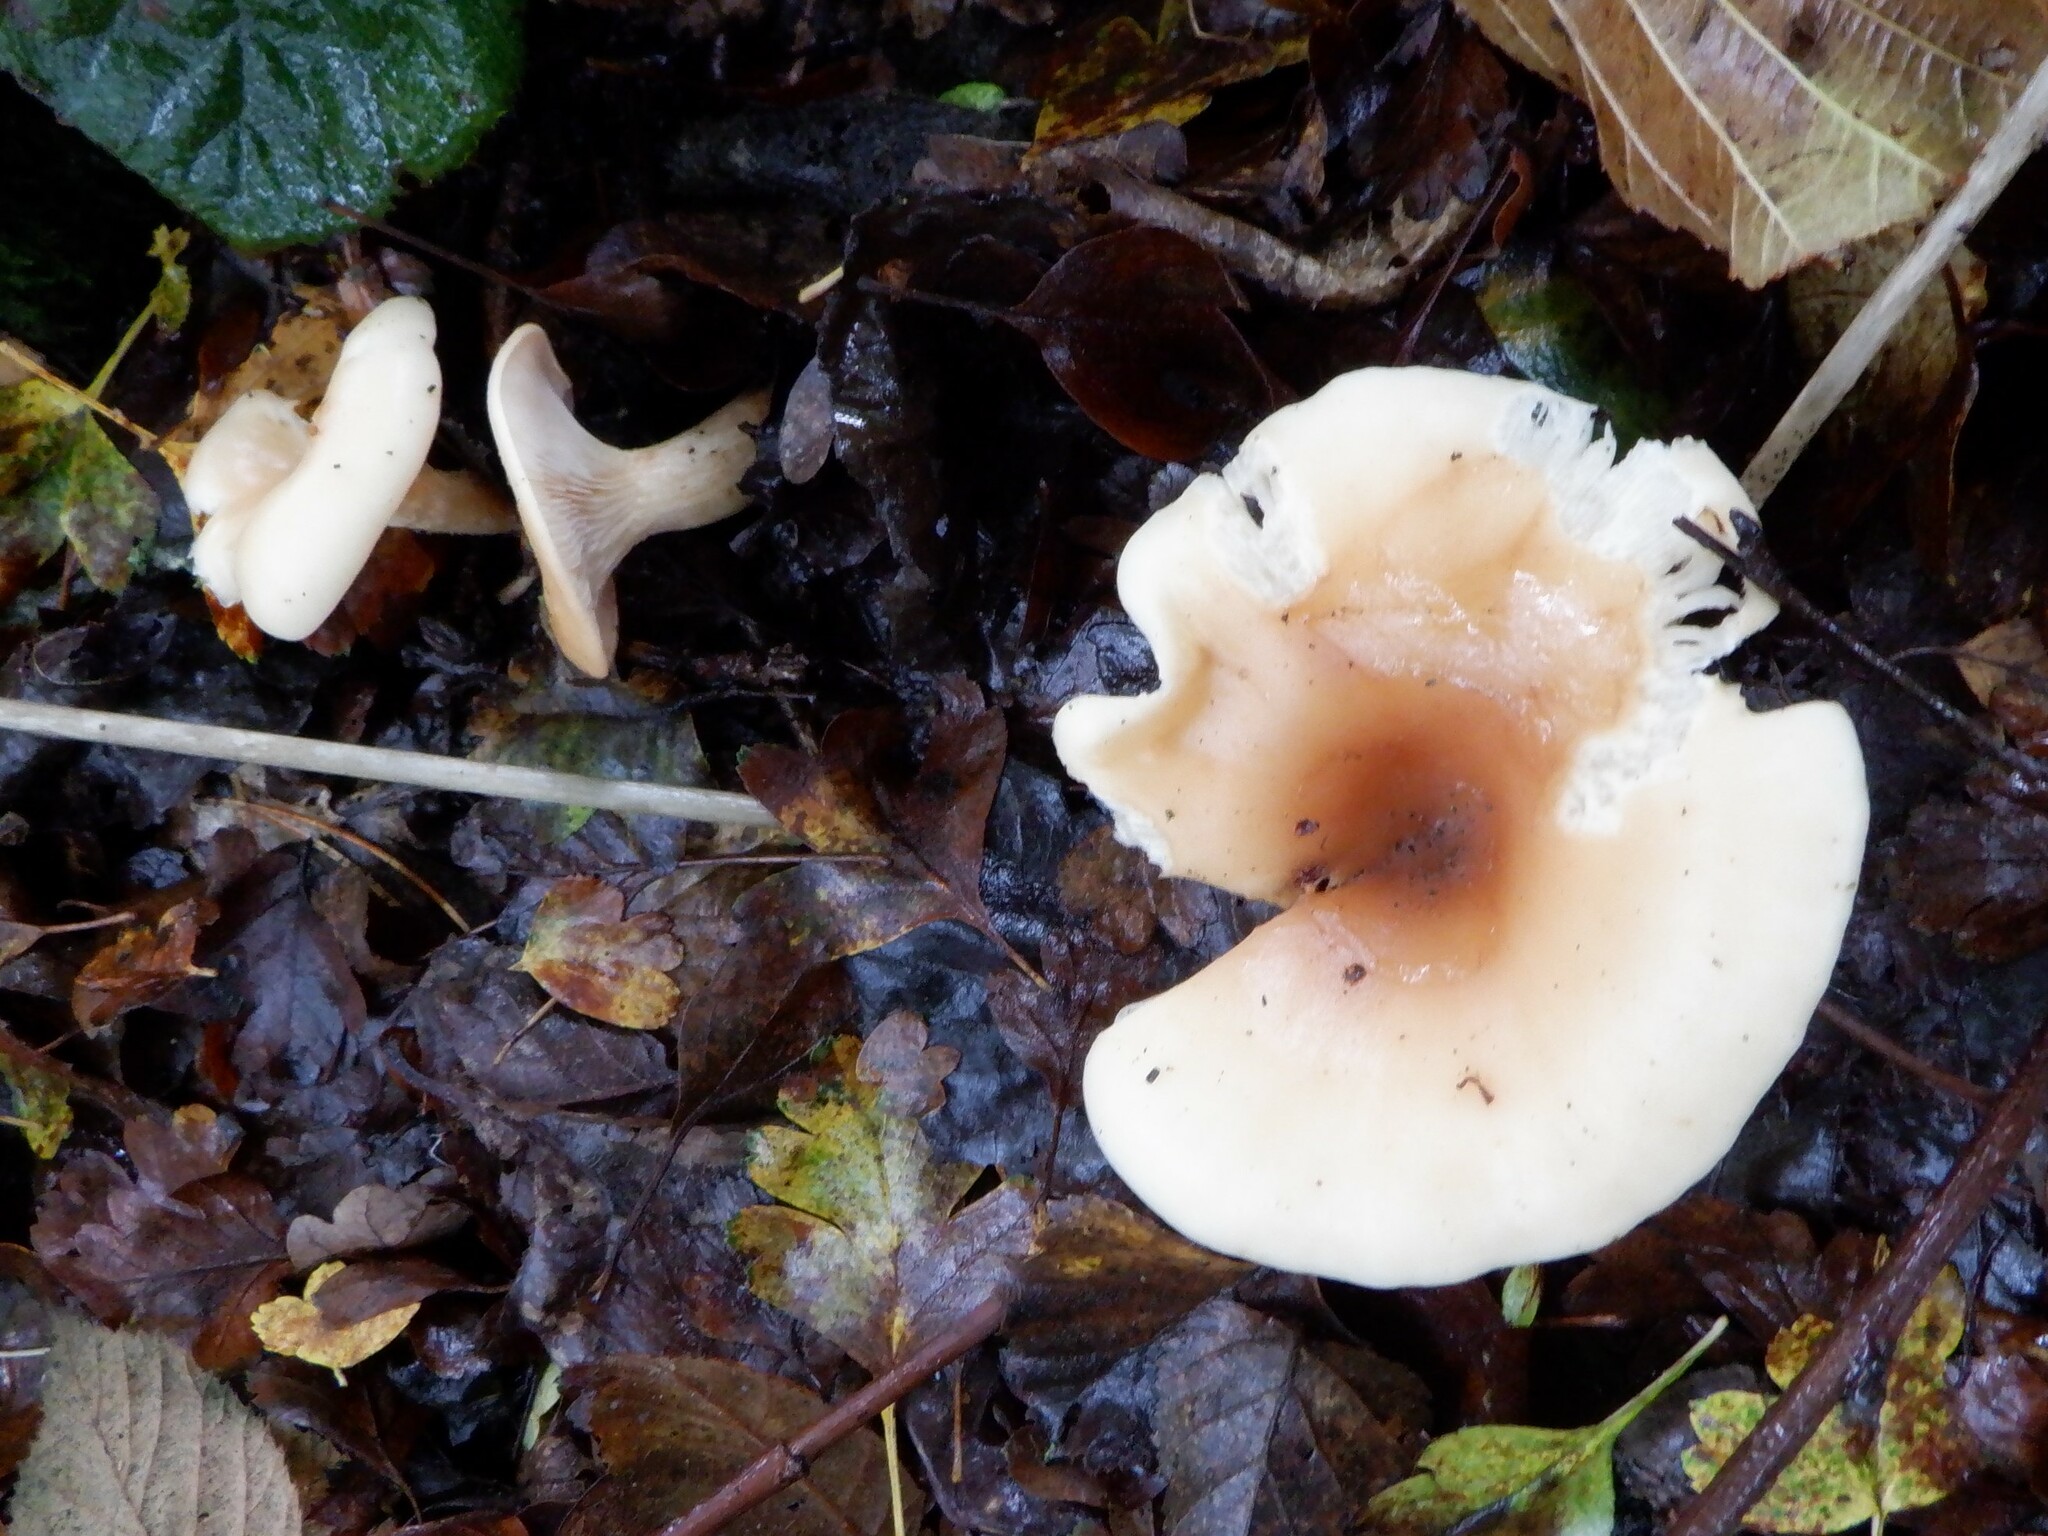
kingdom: Fungi
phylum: Basidiomycota
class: Agaricomycetes
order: Agaricales
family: Omphalotaceae
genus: Rhodocollybia
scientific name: Rhodocollybia butyracea
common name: Butter cap
